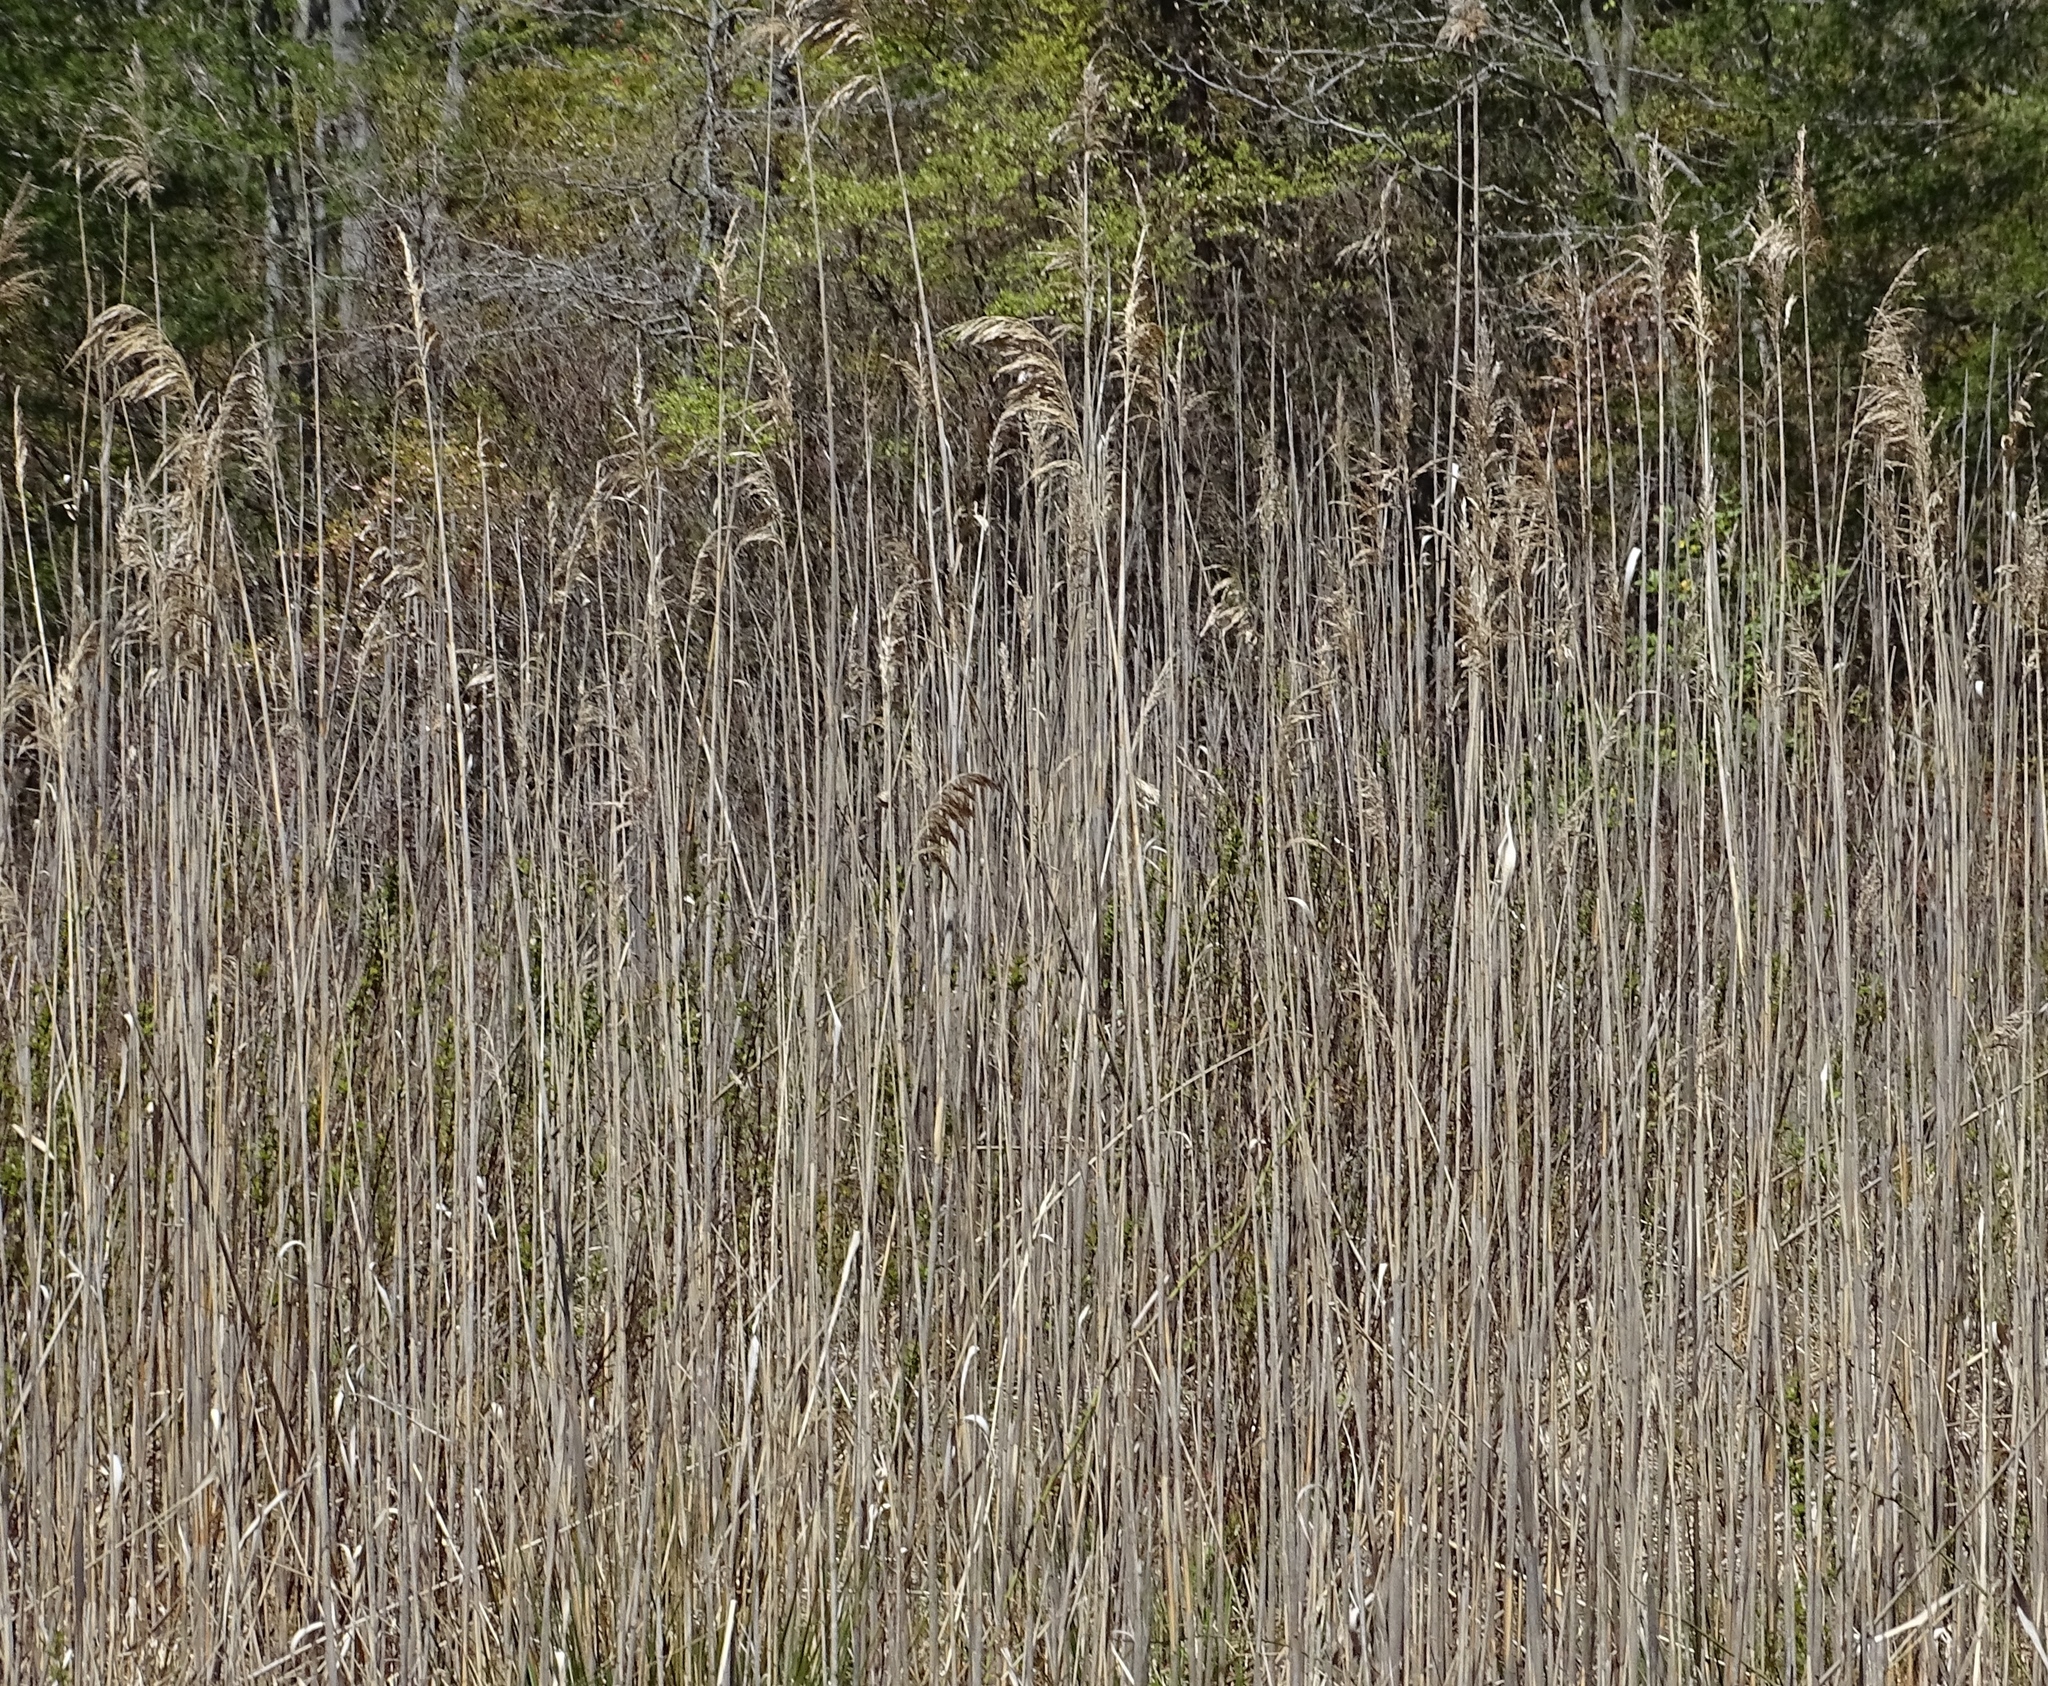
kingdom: Plantae
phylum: Tracheophyta
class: Liliopsida
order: Poales
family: Poaceae
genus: Phragmites
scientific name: Phragmites australis
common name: Common reed
